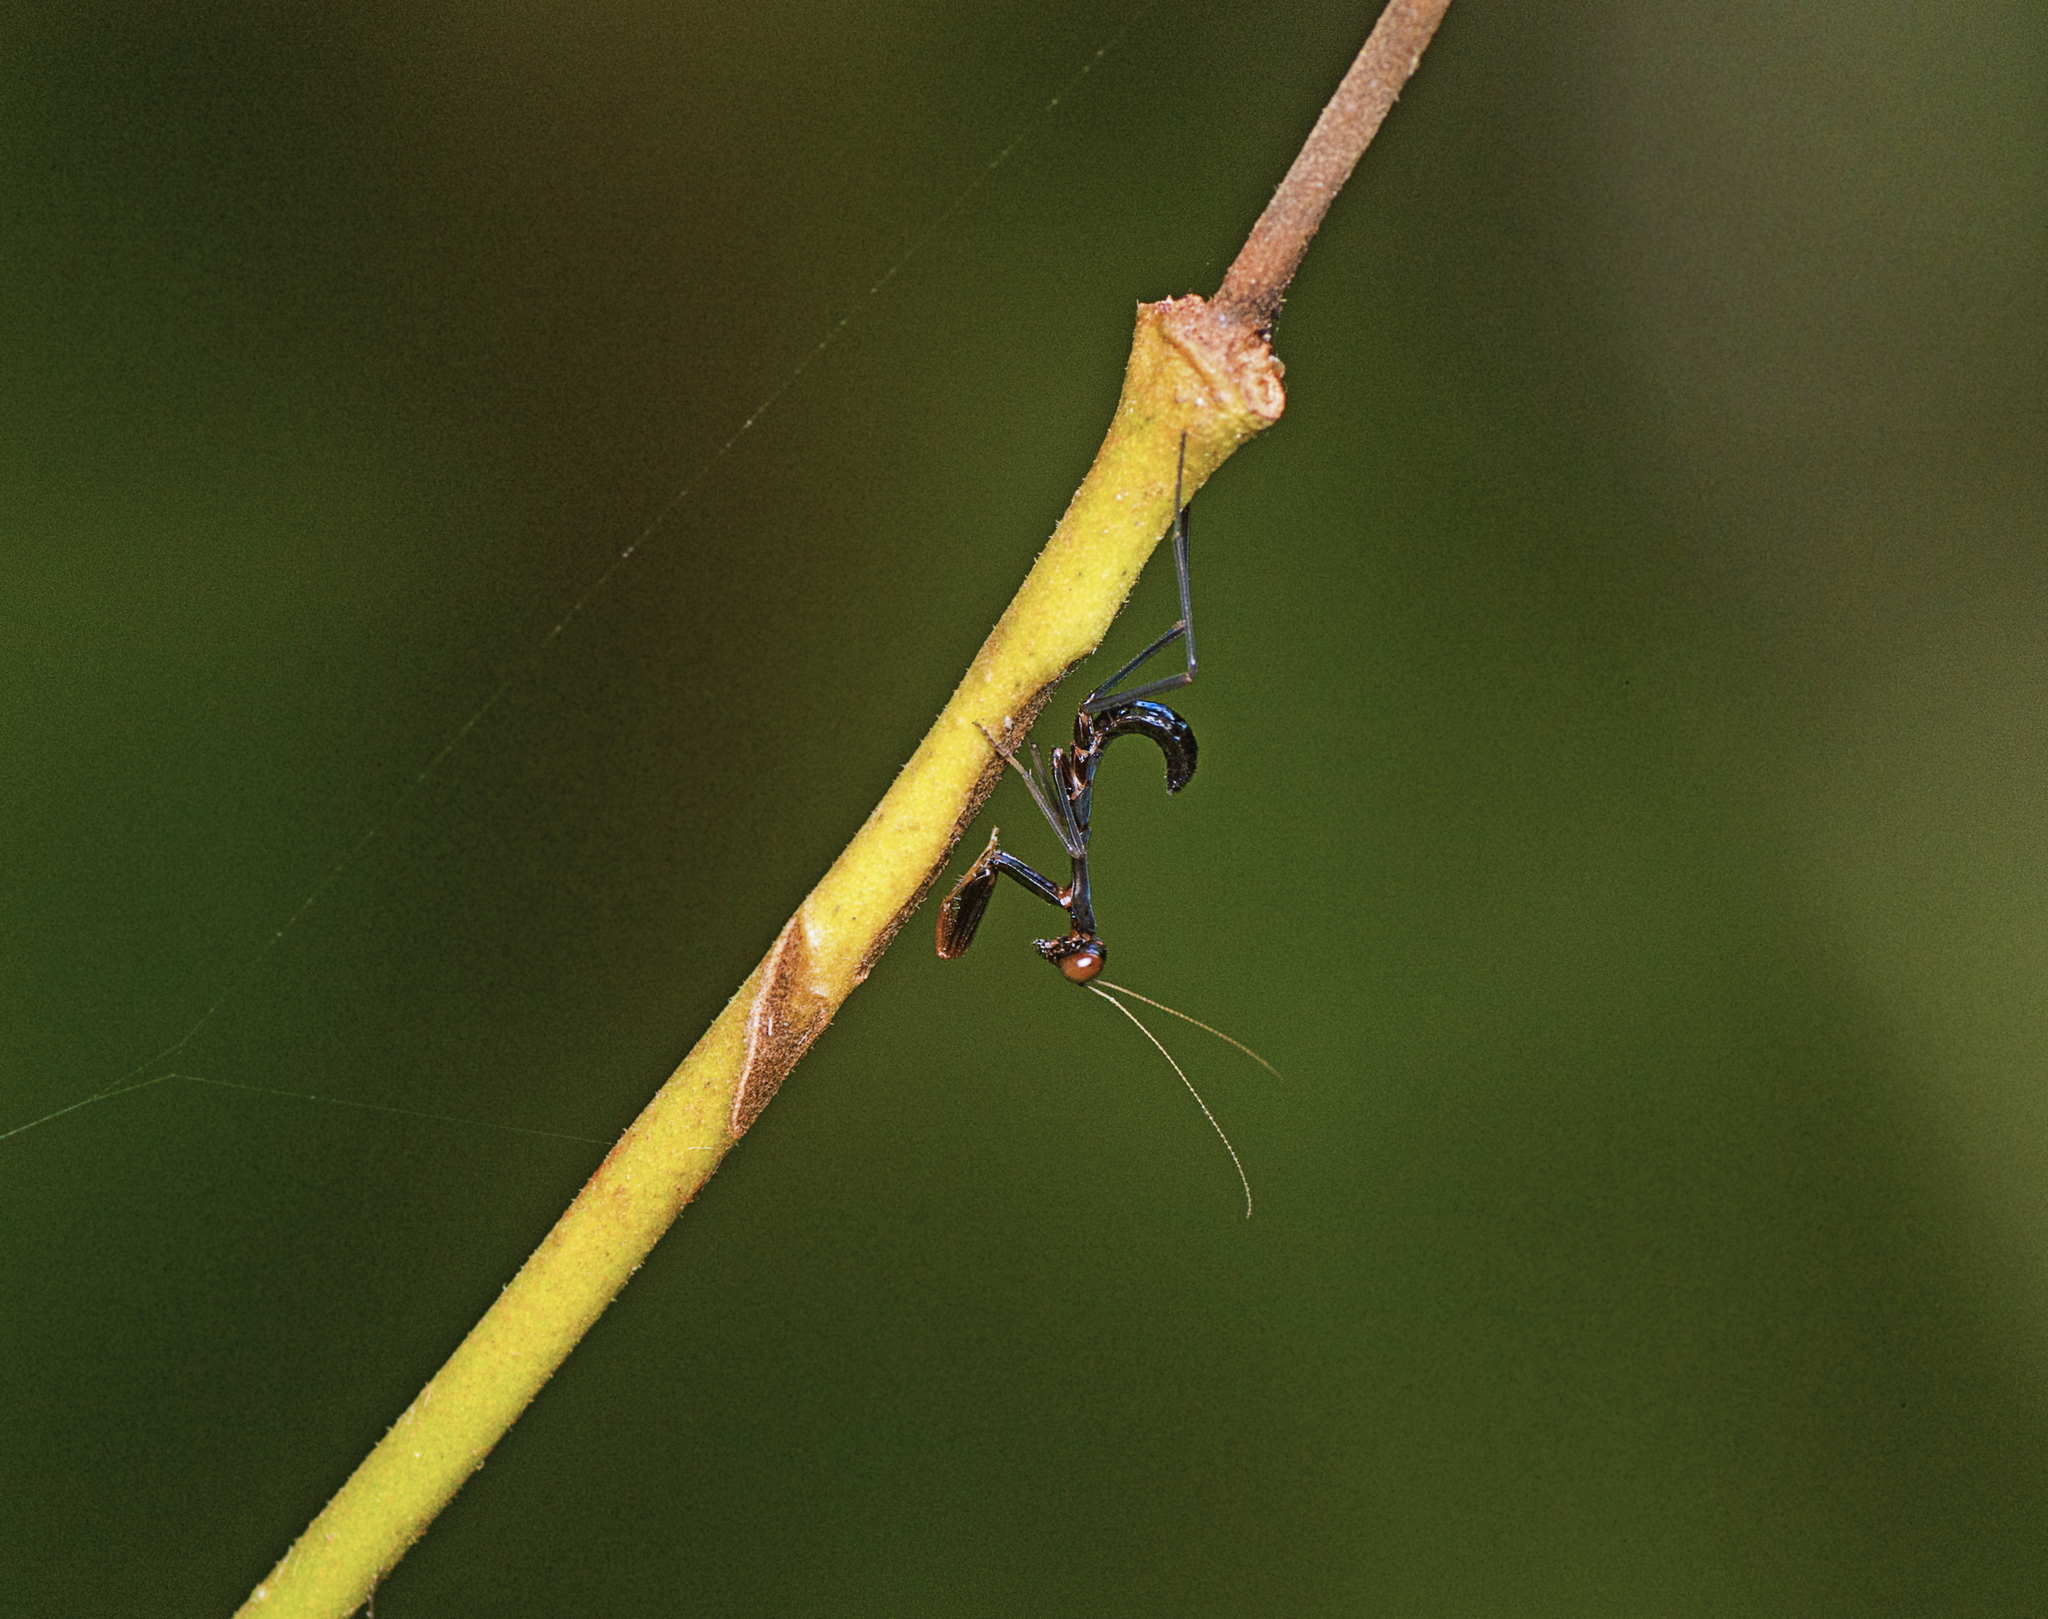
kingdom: Animalia
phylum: Arthropoda
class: Insecta
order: Mantodea
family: Mantidae
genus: Sphodropoda
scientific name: Sphodropoda tristis
